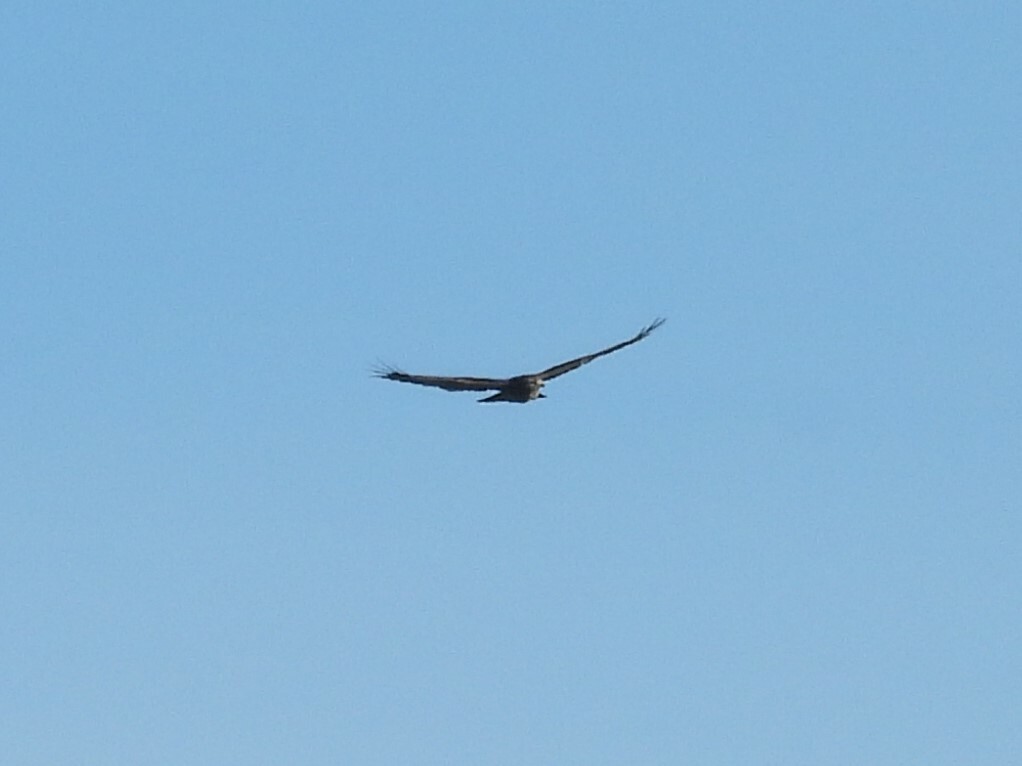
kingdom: Animalia
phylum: Chordata
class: Aves
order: Accipitriformes
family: Accipitridae
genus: Buteo
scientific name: Buteo buteo
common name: Common buzzard
